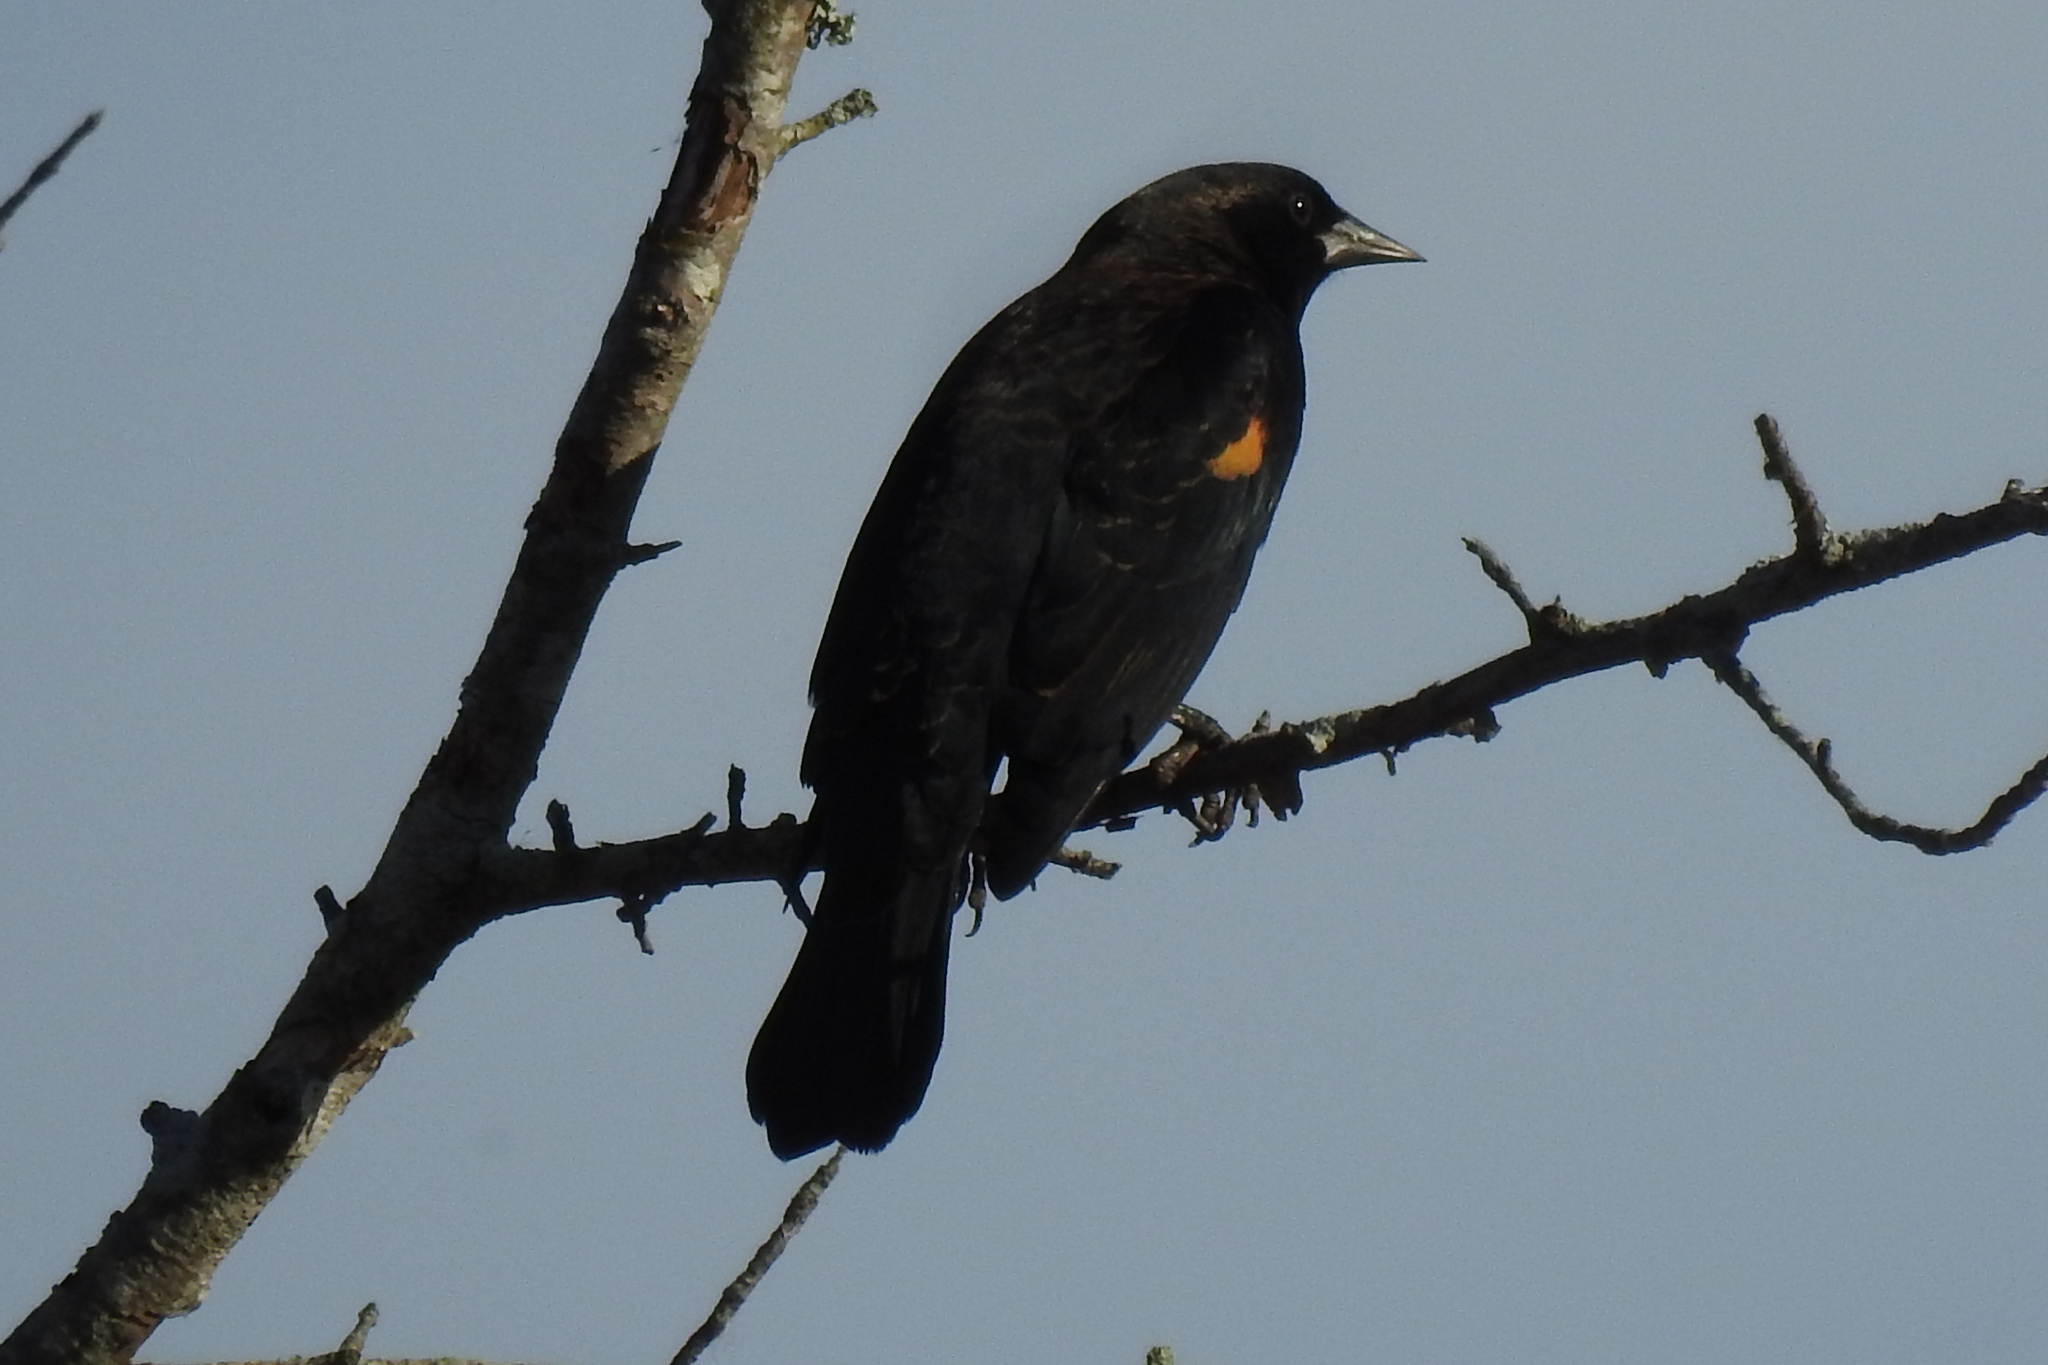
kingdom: Animalia
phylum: Chordata
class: Aves
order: Passeriformes
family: Icteridae
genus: Agelaius
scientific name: Agelaius phoeniceus
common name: Red-winged blackbird
